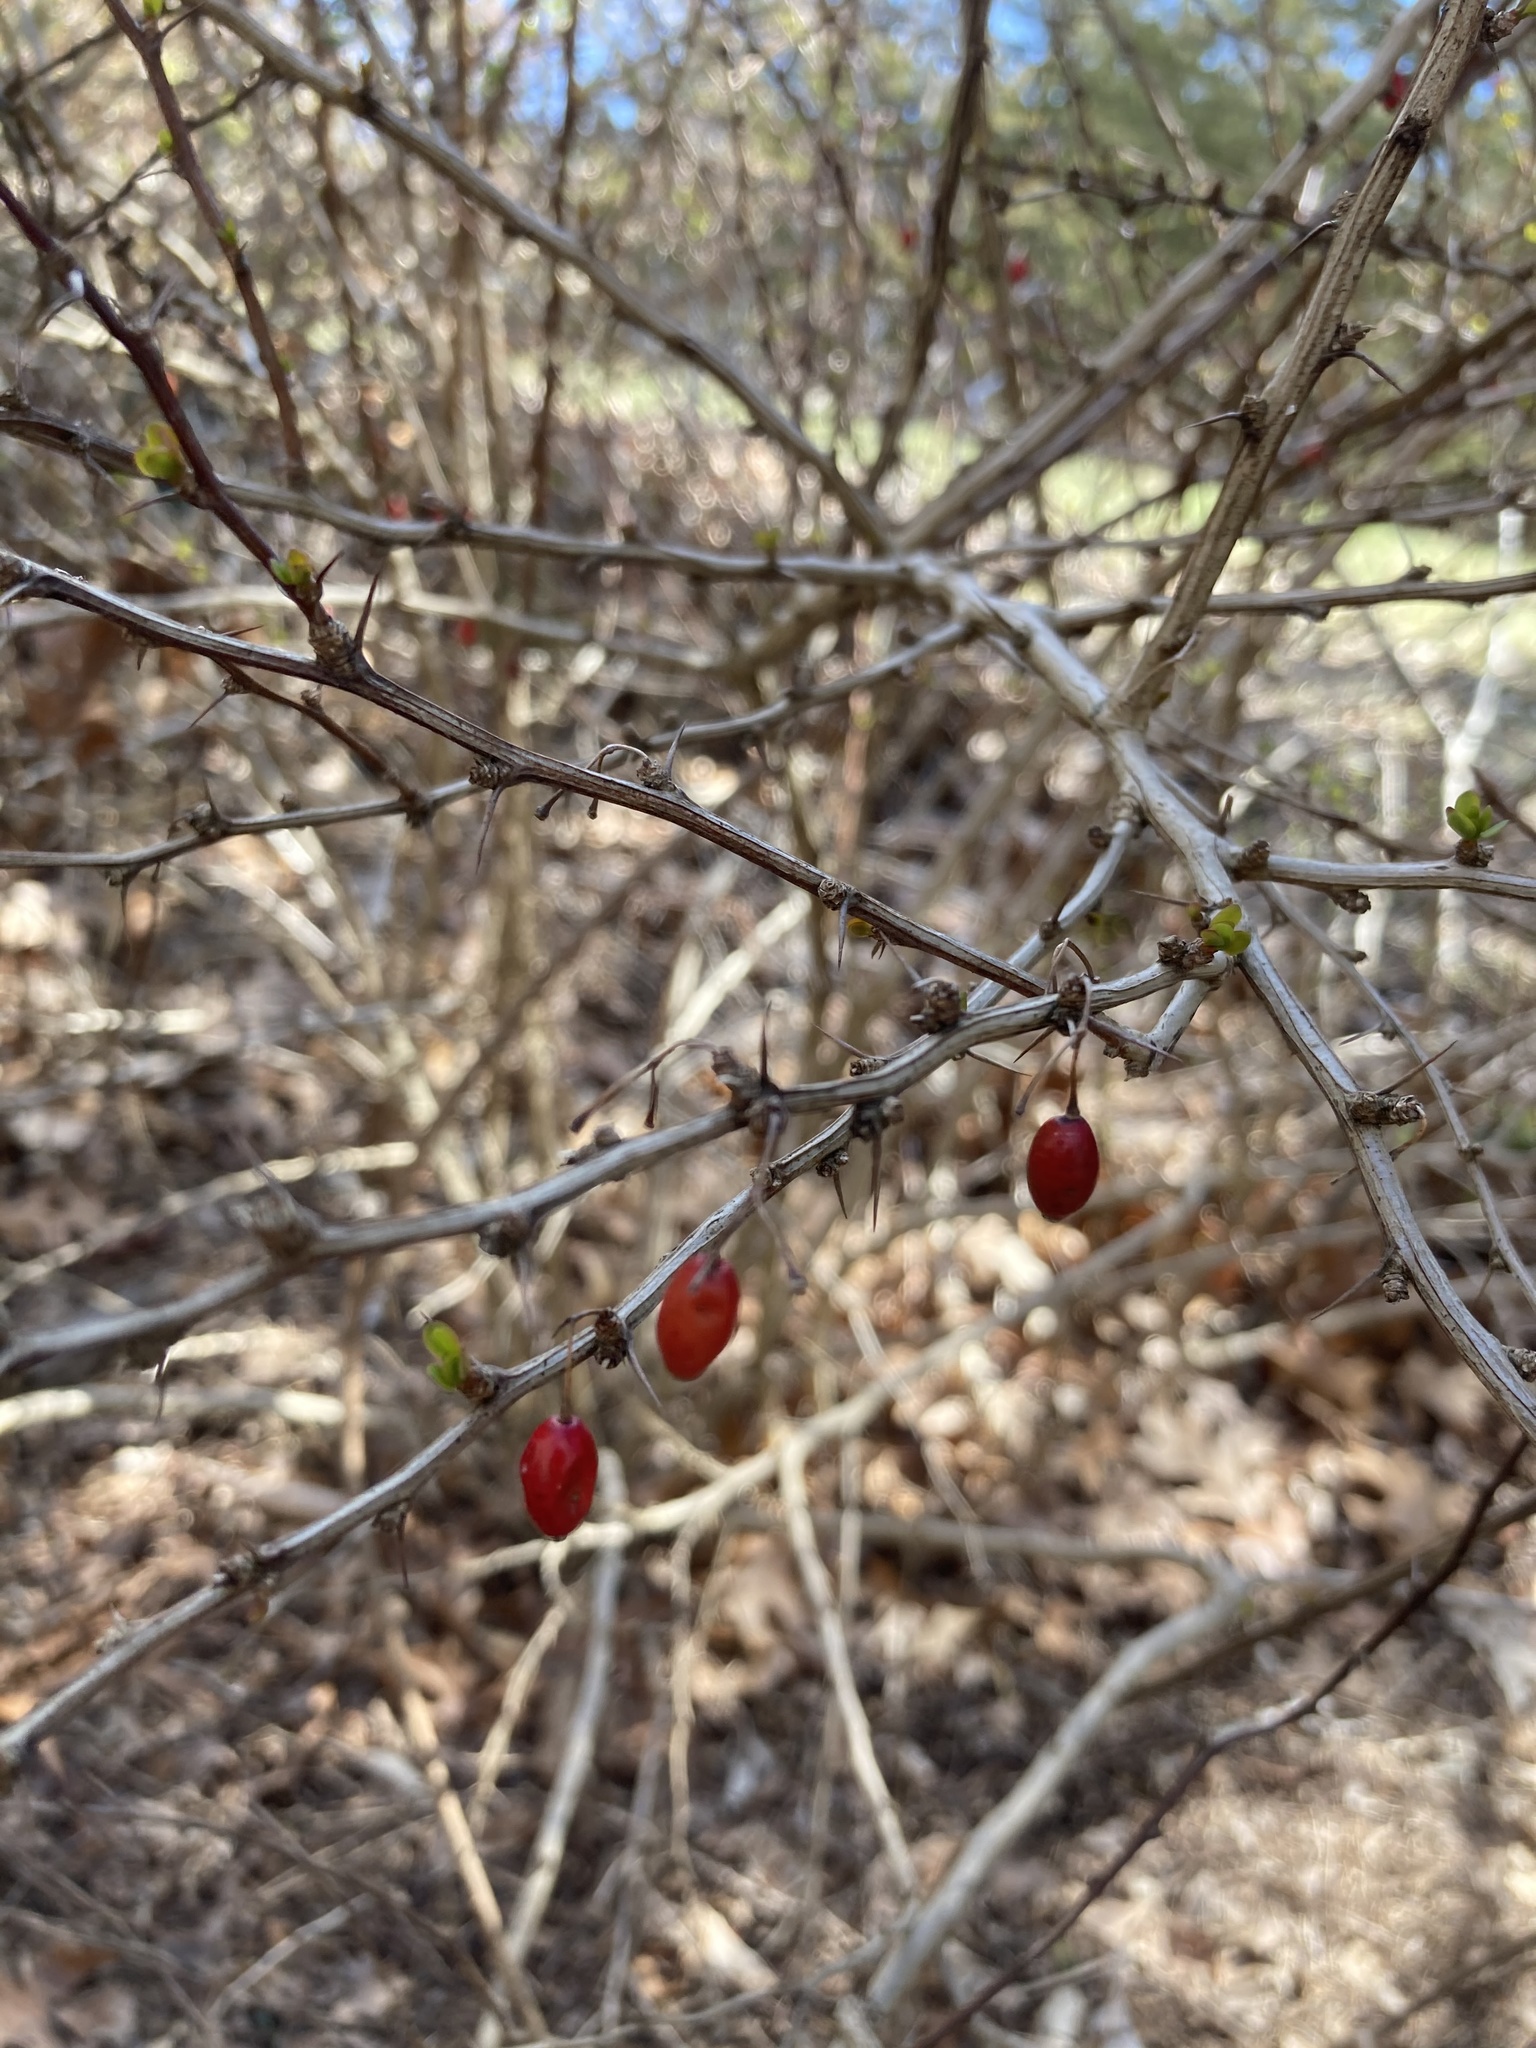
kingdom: Plantae
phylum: Tracheophyta
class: Magnoliopsida
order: Ranunculales
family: Berberidaceae
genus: Berberis
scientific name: Berberis thunbergii
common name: Japanese barberry
